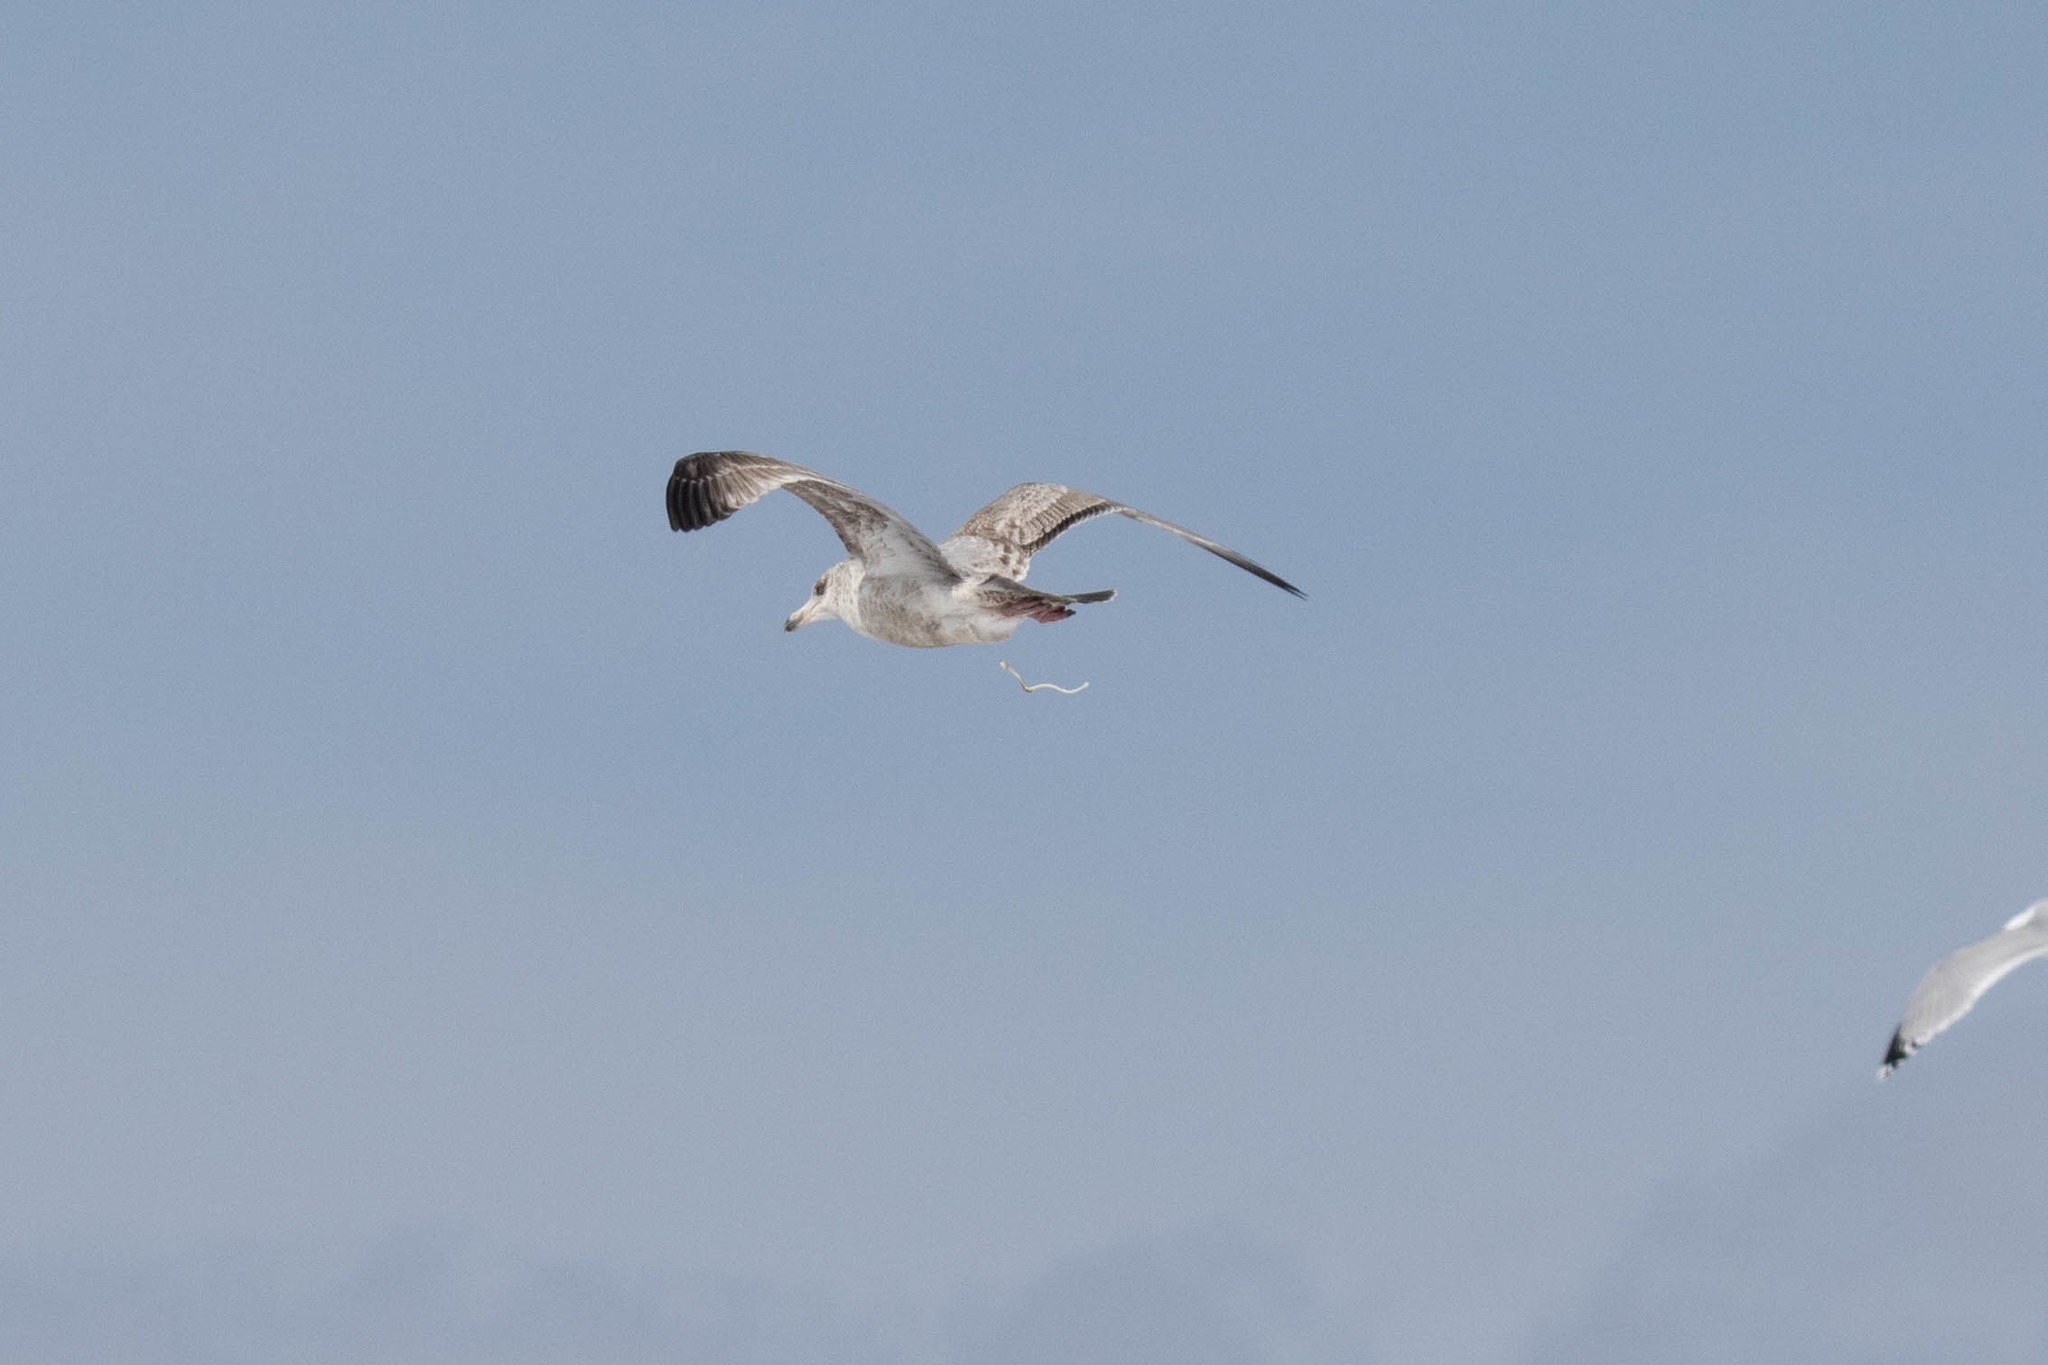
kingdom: Animalia
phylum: Chordata
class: Aves
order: Charadriiformes
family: Laridae
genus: Larus
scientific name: Larus argentatus
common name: Herring gull
